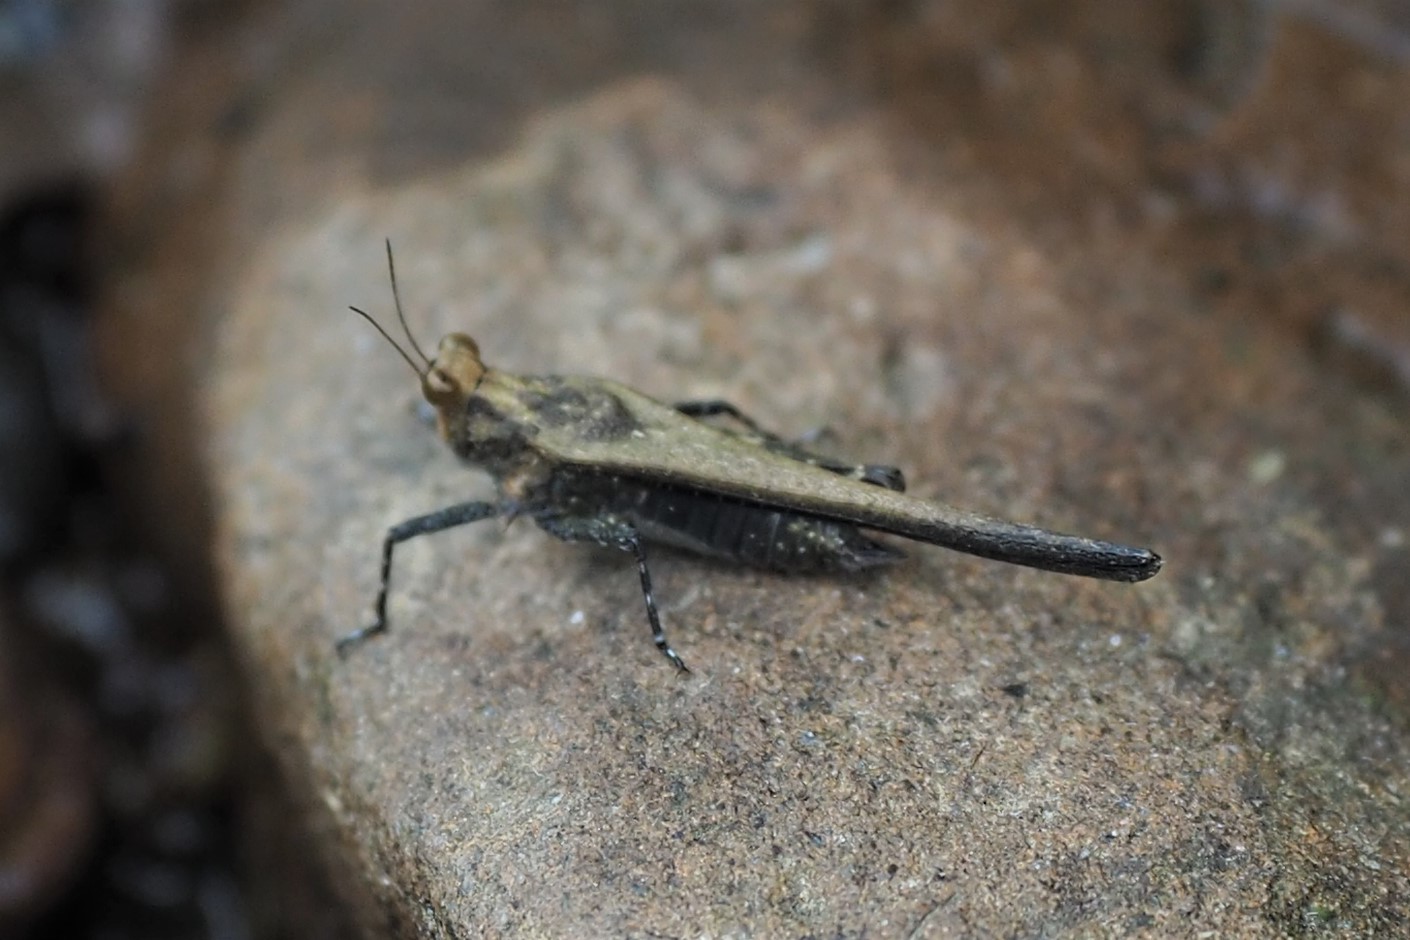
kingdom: Animalia
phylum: Arthropoda
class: Insecta
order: Orthoptera
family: Tetrigidae
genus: Criotettix
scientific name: Criotettix bispinosus
